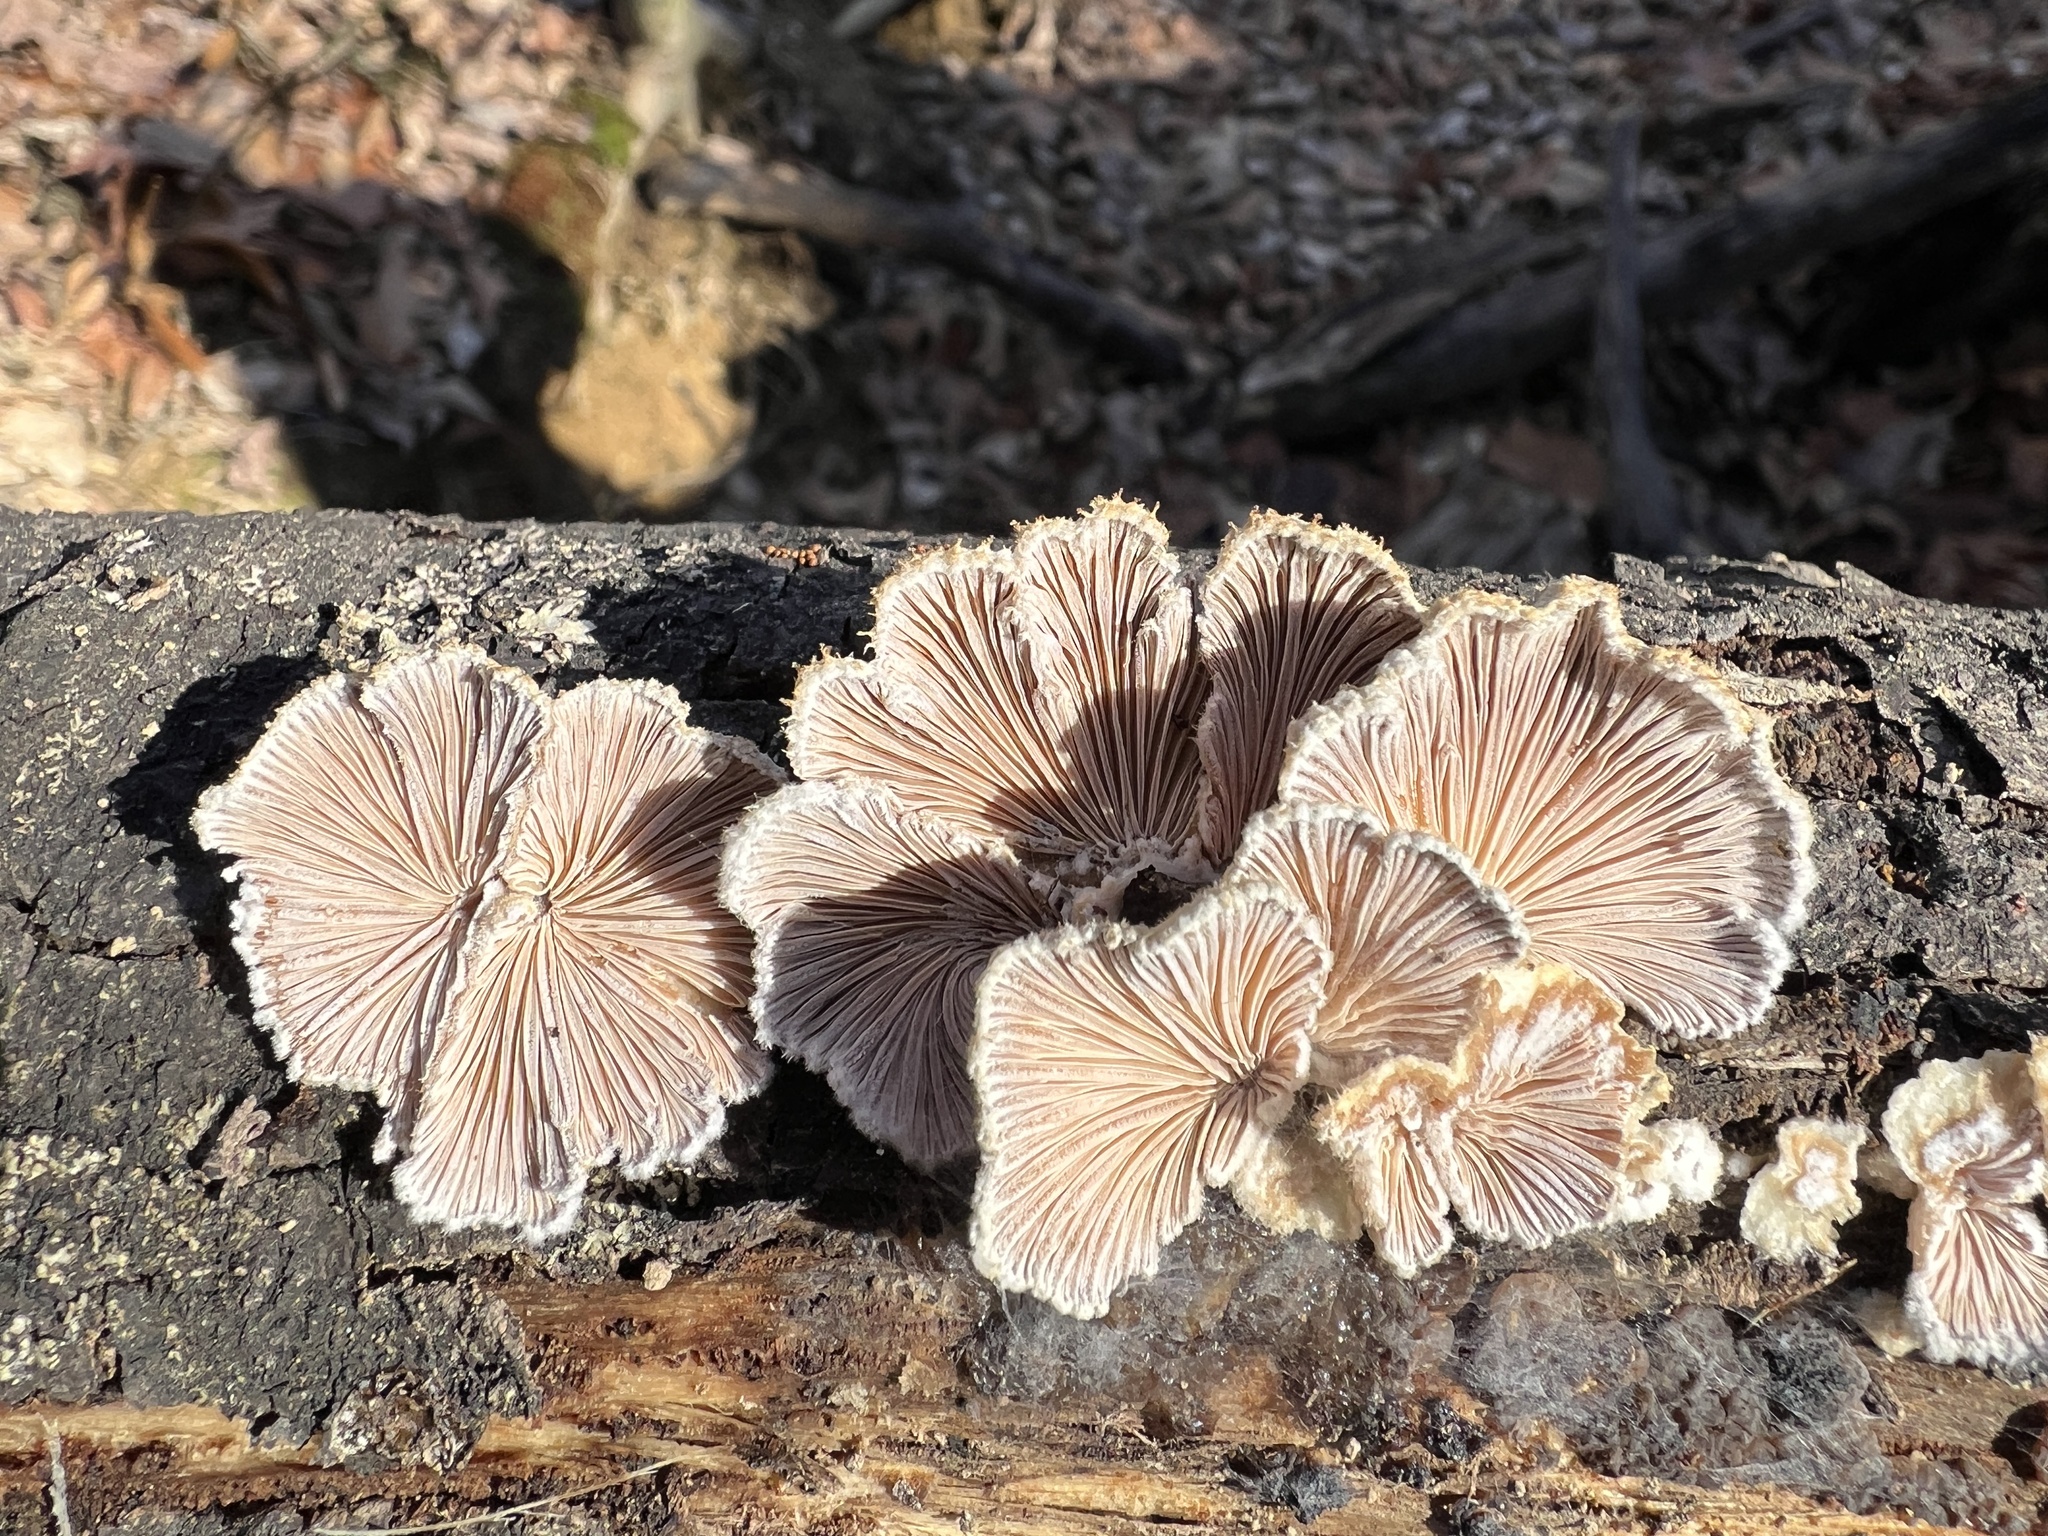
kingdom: Fungi
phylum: Basidiomycota
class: Agaricomycetes
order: Agaricales
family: Schizophyllaceae
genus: Schizophyllum
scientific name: Schizophyllum commune
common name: Common porecrust
